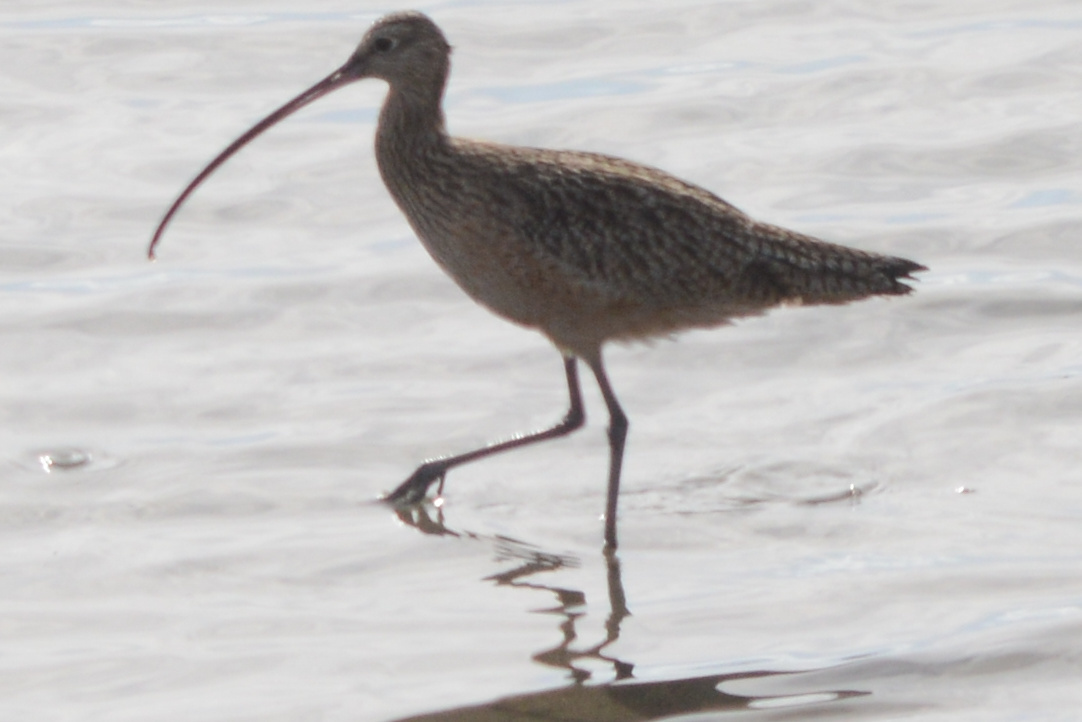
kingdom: Animalia
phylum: Chordata
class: Aves
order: Charadriiformes
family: Scolopacidae
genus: Numenius
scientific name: Numenius americanus
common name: Long-billed curlew
